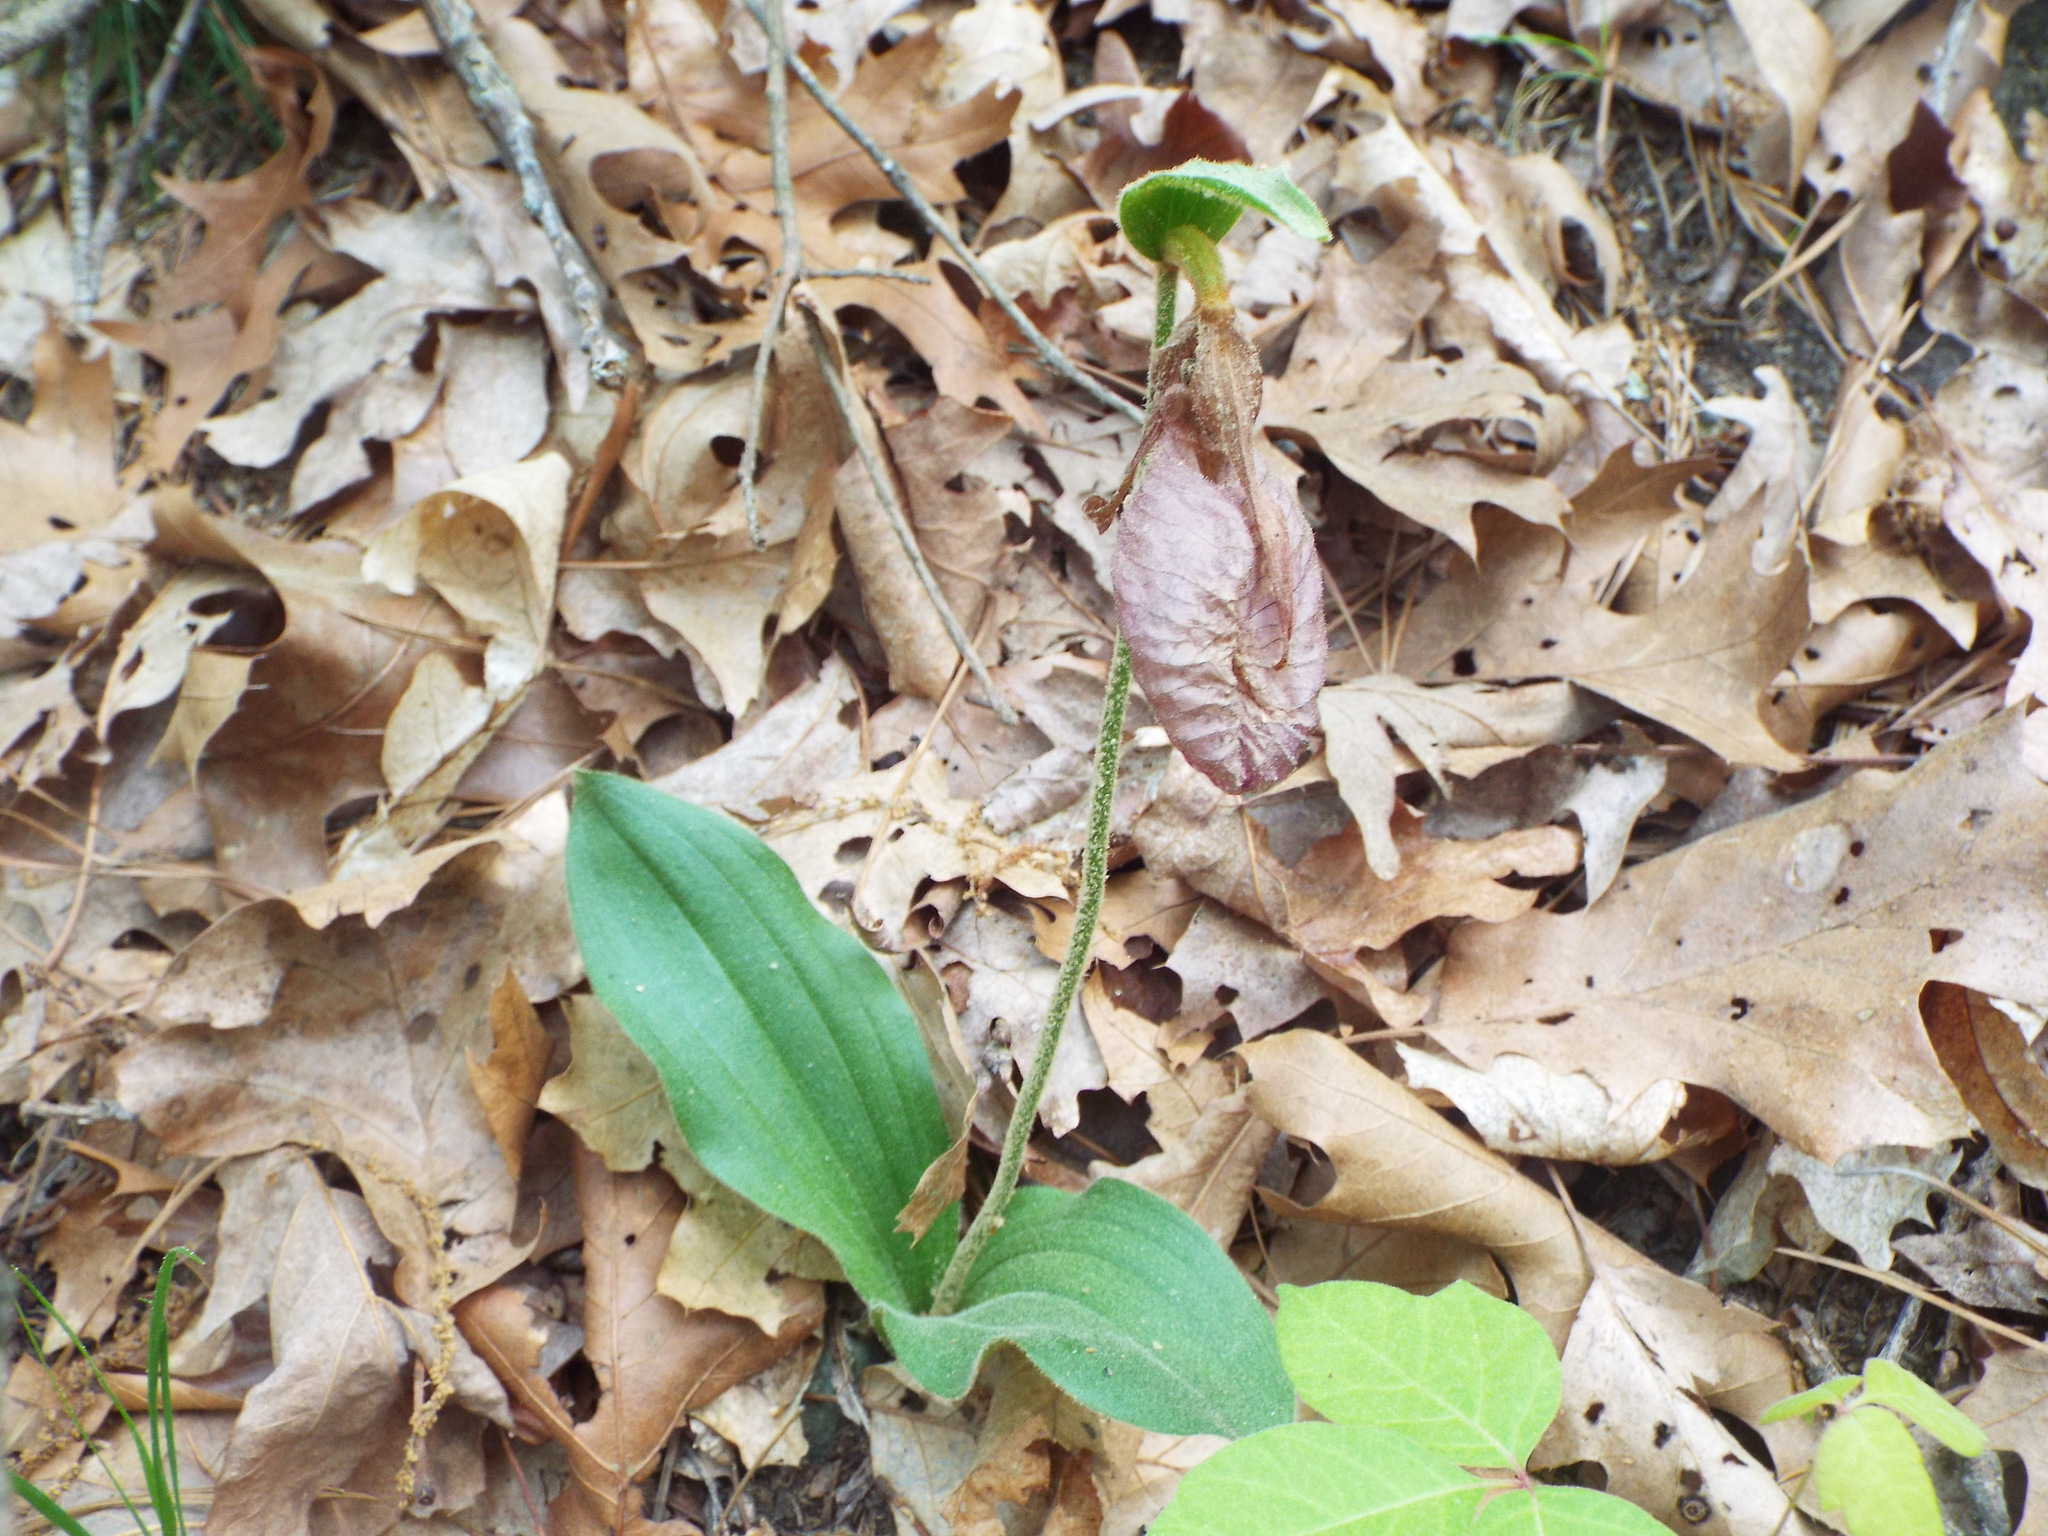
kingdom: Plantae
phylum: Tracheophyta
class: Liliopsida
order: Asparagales
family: Orchidaceae
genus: Cypripedium
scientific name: Cypripedium acaule
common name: Pink lady's-slipper
